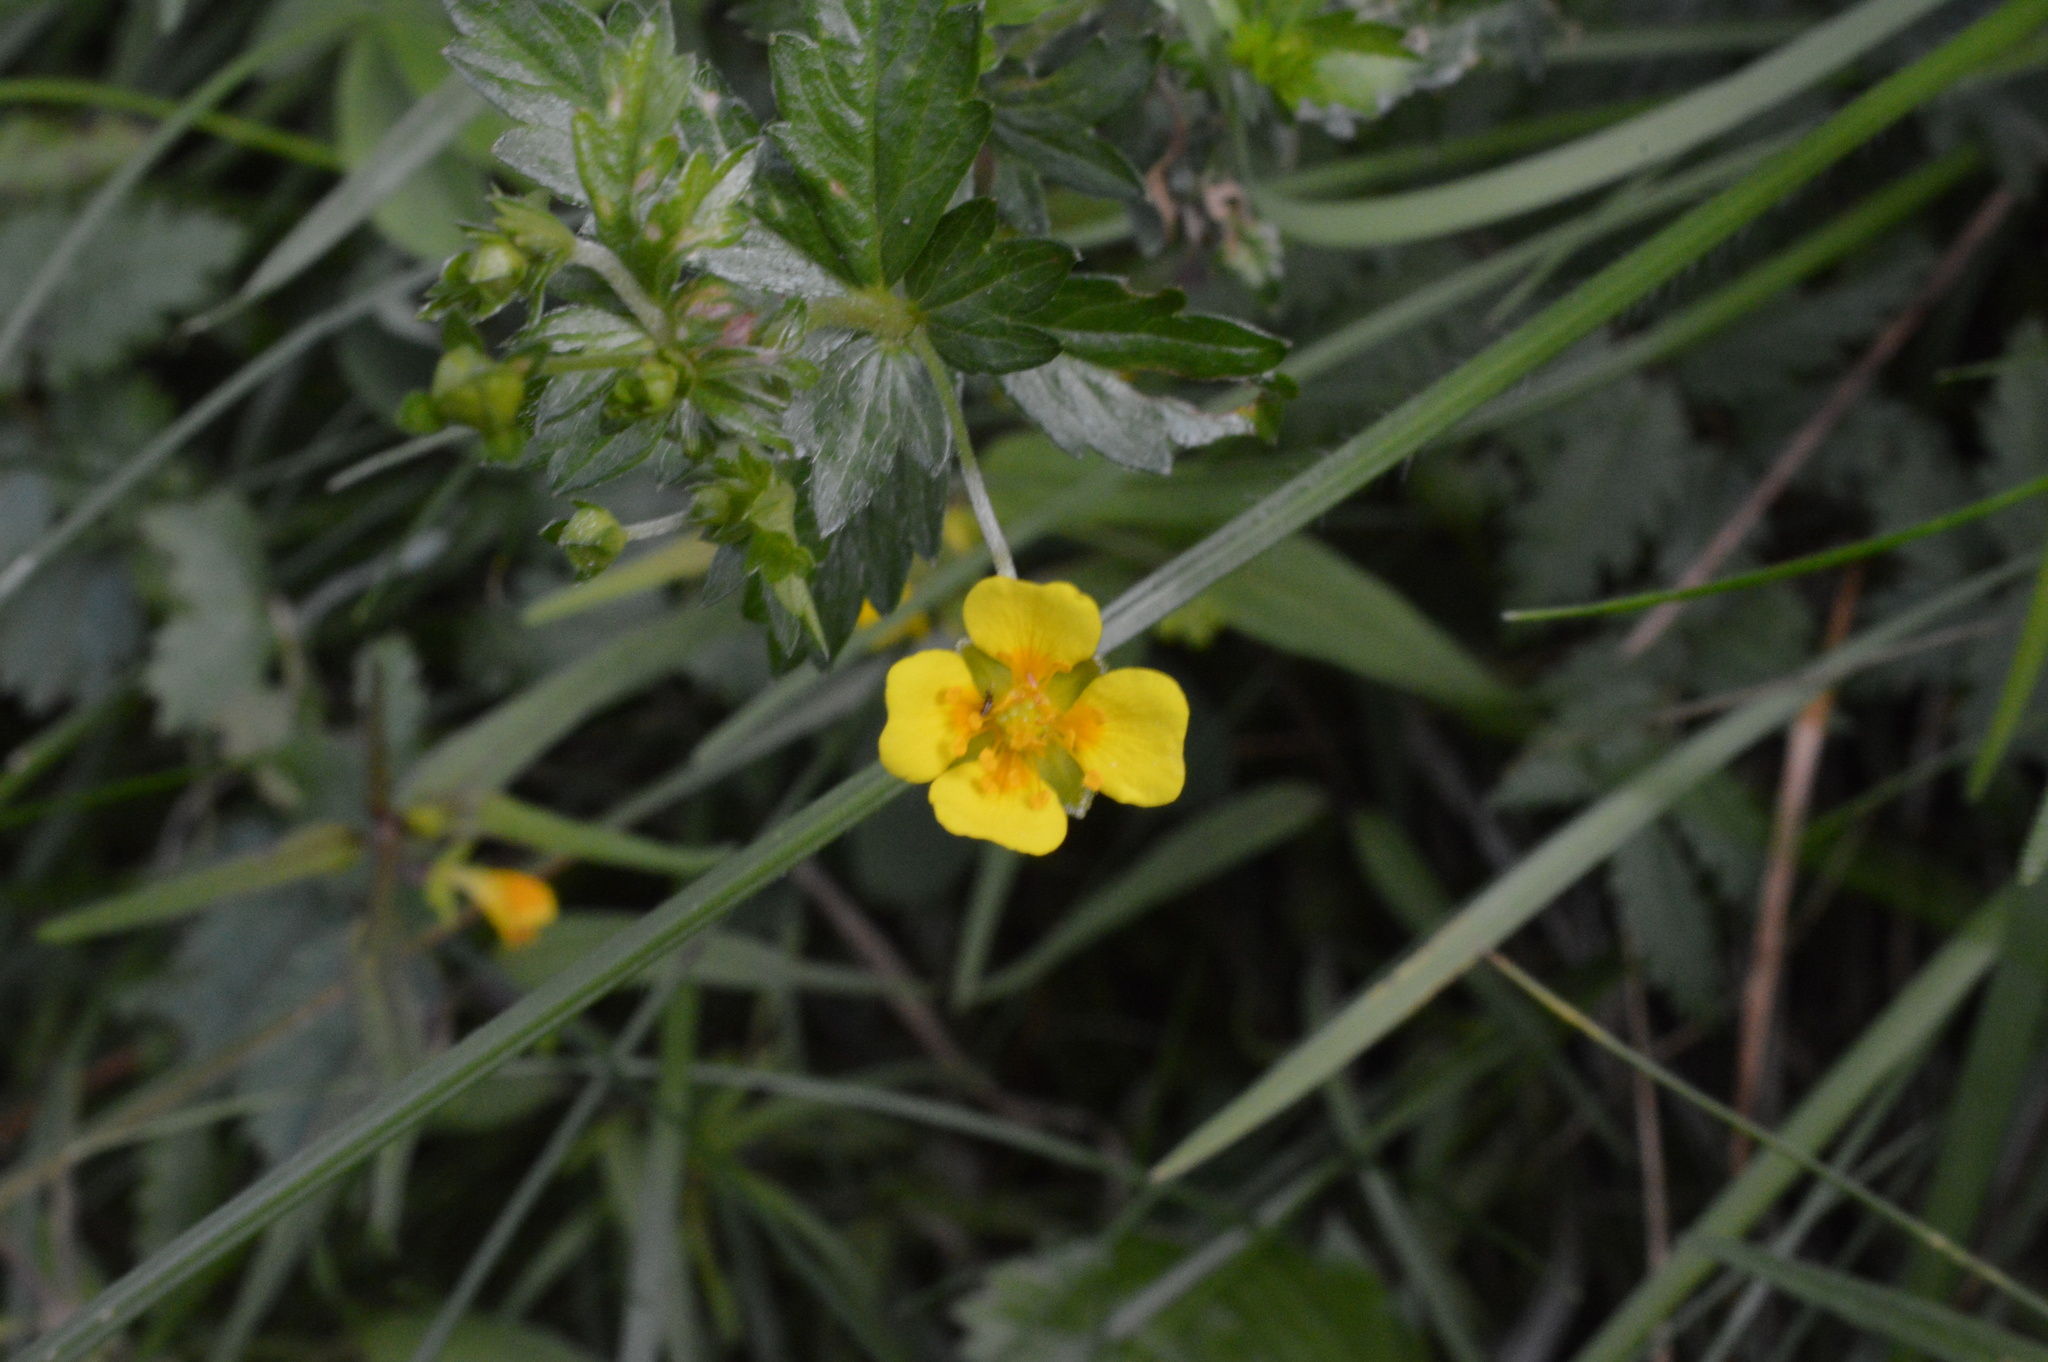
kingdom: Plantae
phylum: Tracheophyta
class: Magnoliopsida
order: Rosales
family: Rosaceae
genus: Potentilla
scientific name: Potentilla erecta
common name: Tormentil
